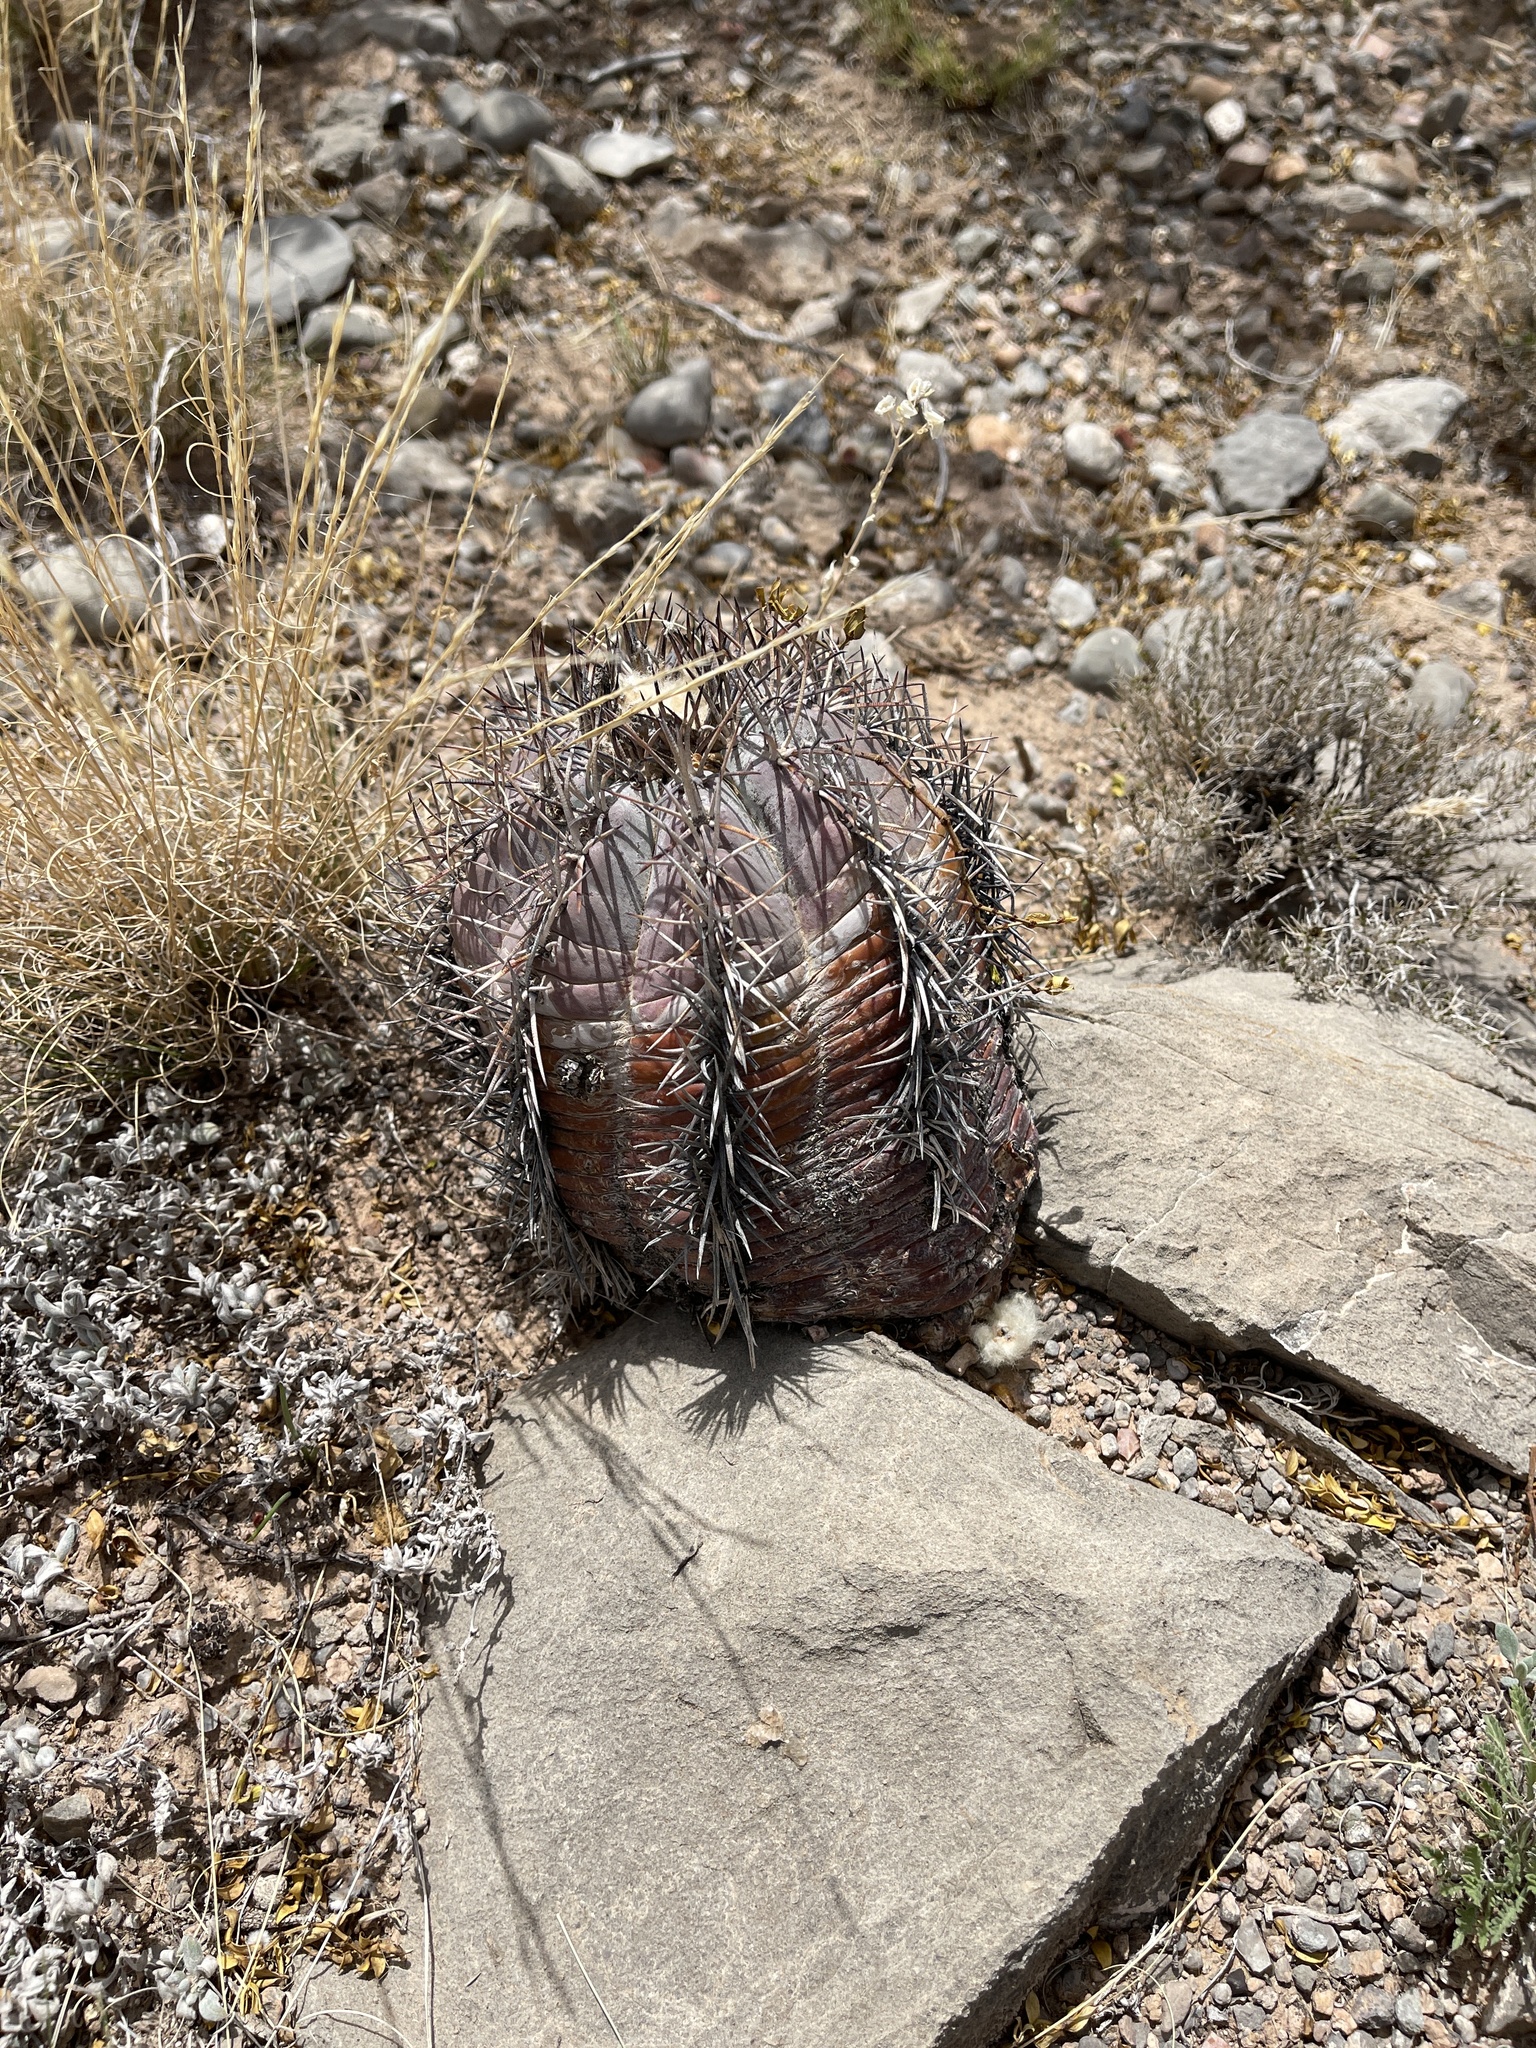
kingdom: Plantae
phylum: Tracheophyta
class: Magnoliopsida
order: Caryophyllales
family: Cactaceae
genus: Echinocactus
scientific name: Echinocactus horizonthalonius
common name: Devilshead
